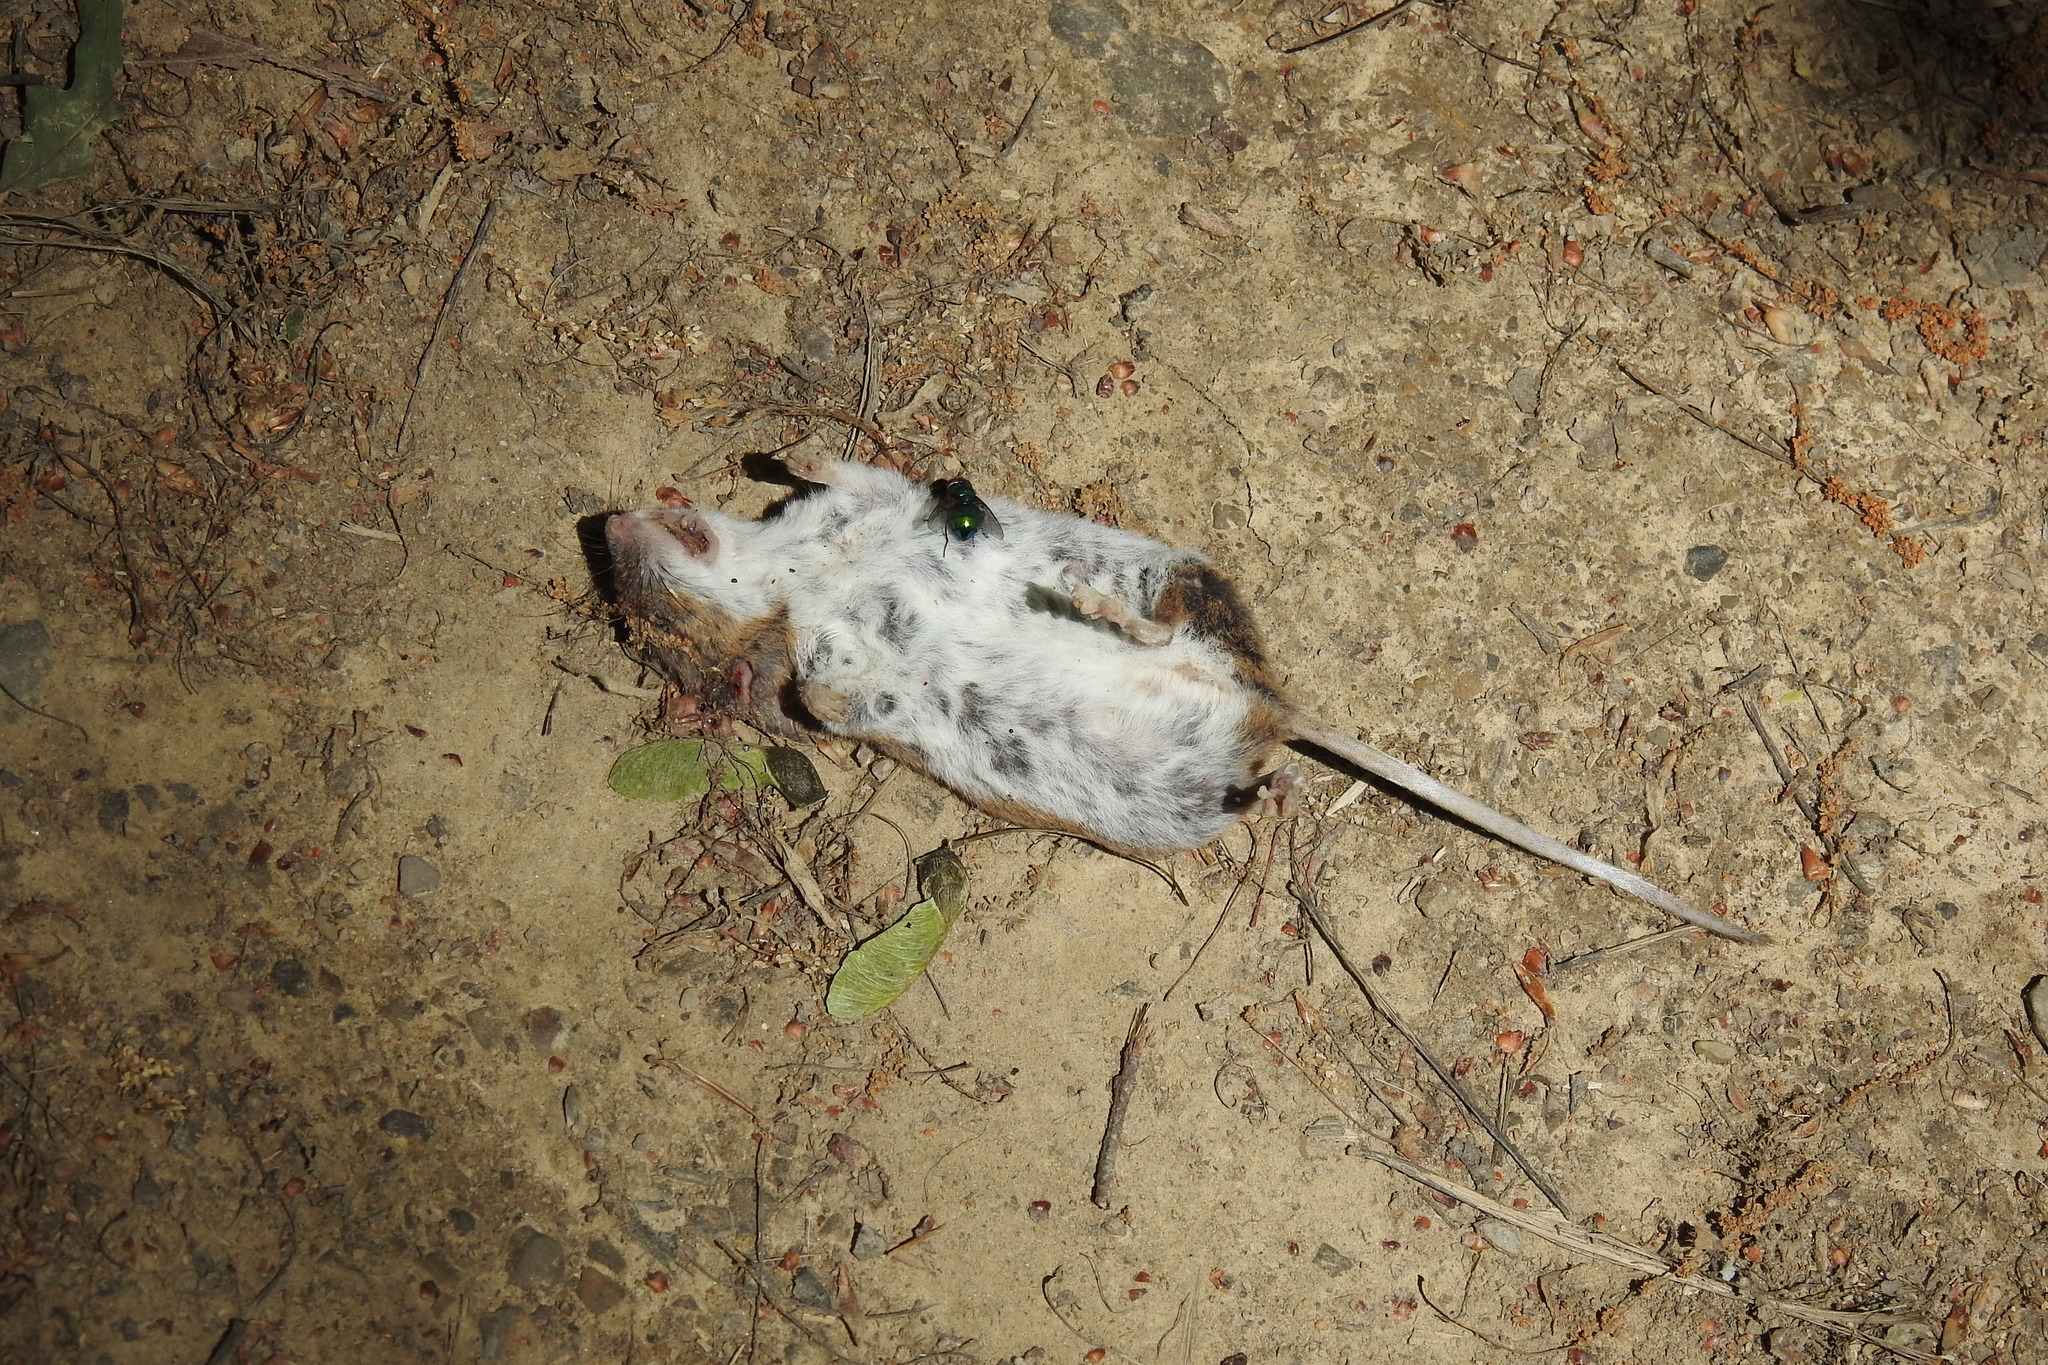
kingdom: Animalia
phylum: Chordata
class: Mammalia
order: Rodentia
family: Cricetidae
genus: Peromyscus
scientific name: Peromyscus leucopus
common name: White-footed deermouse
